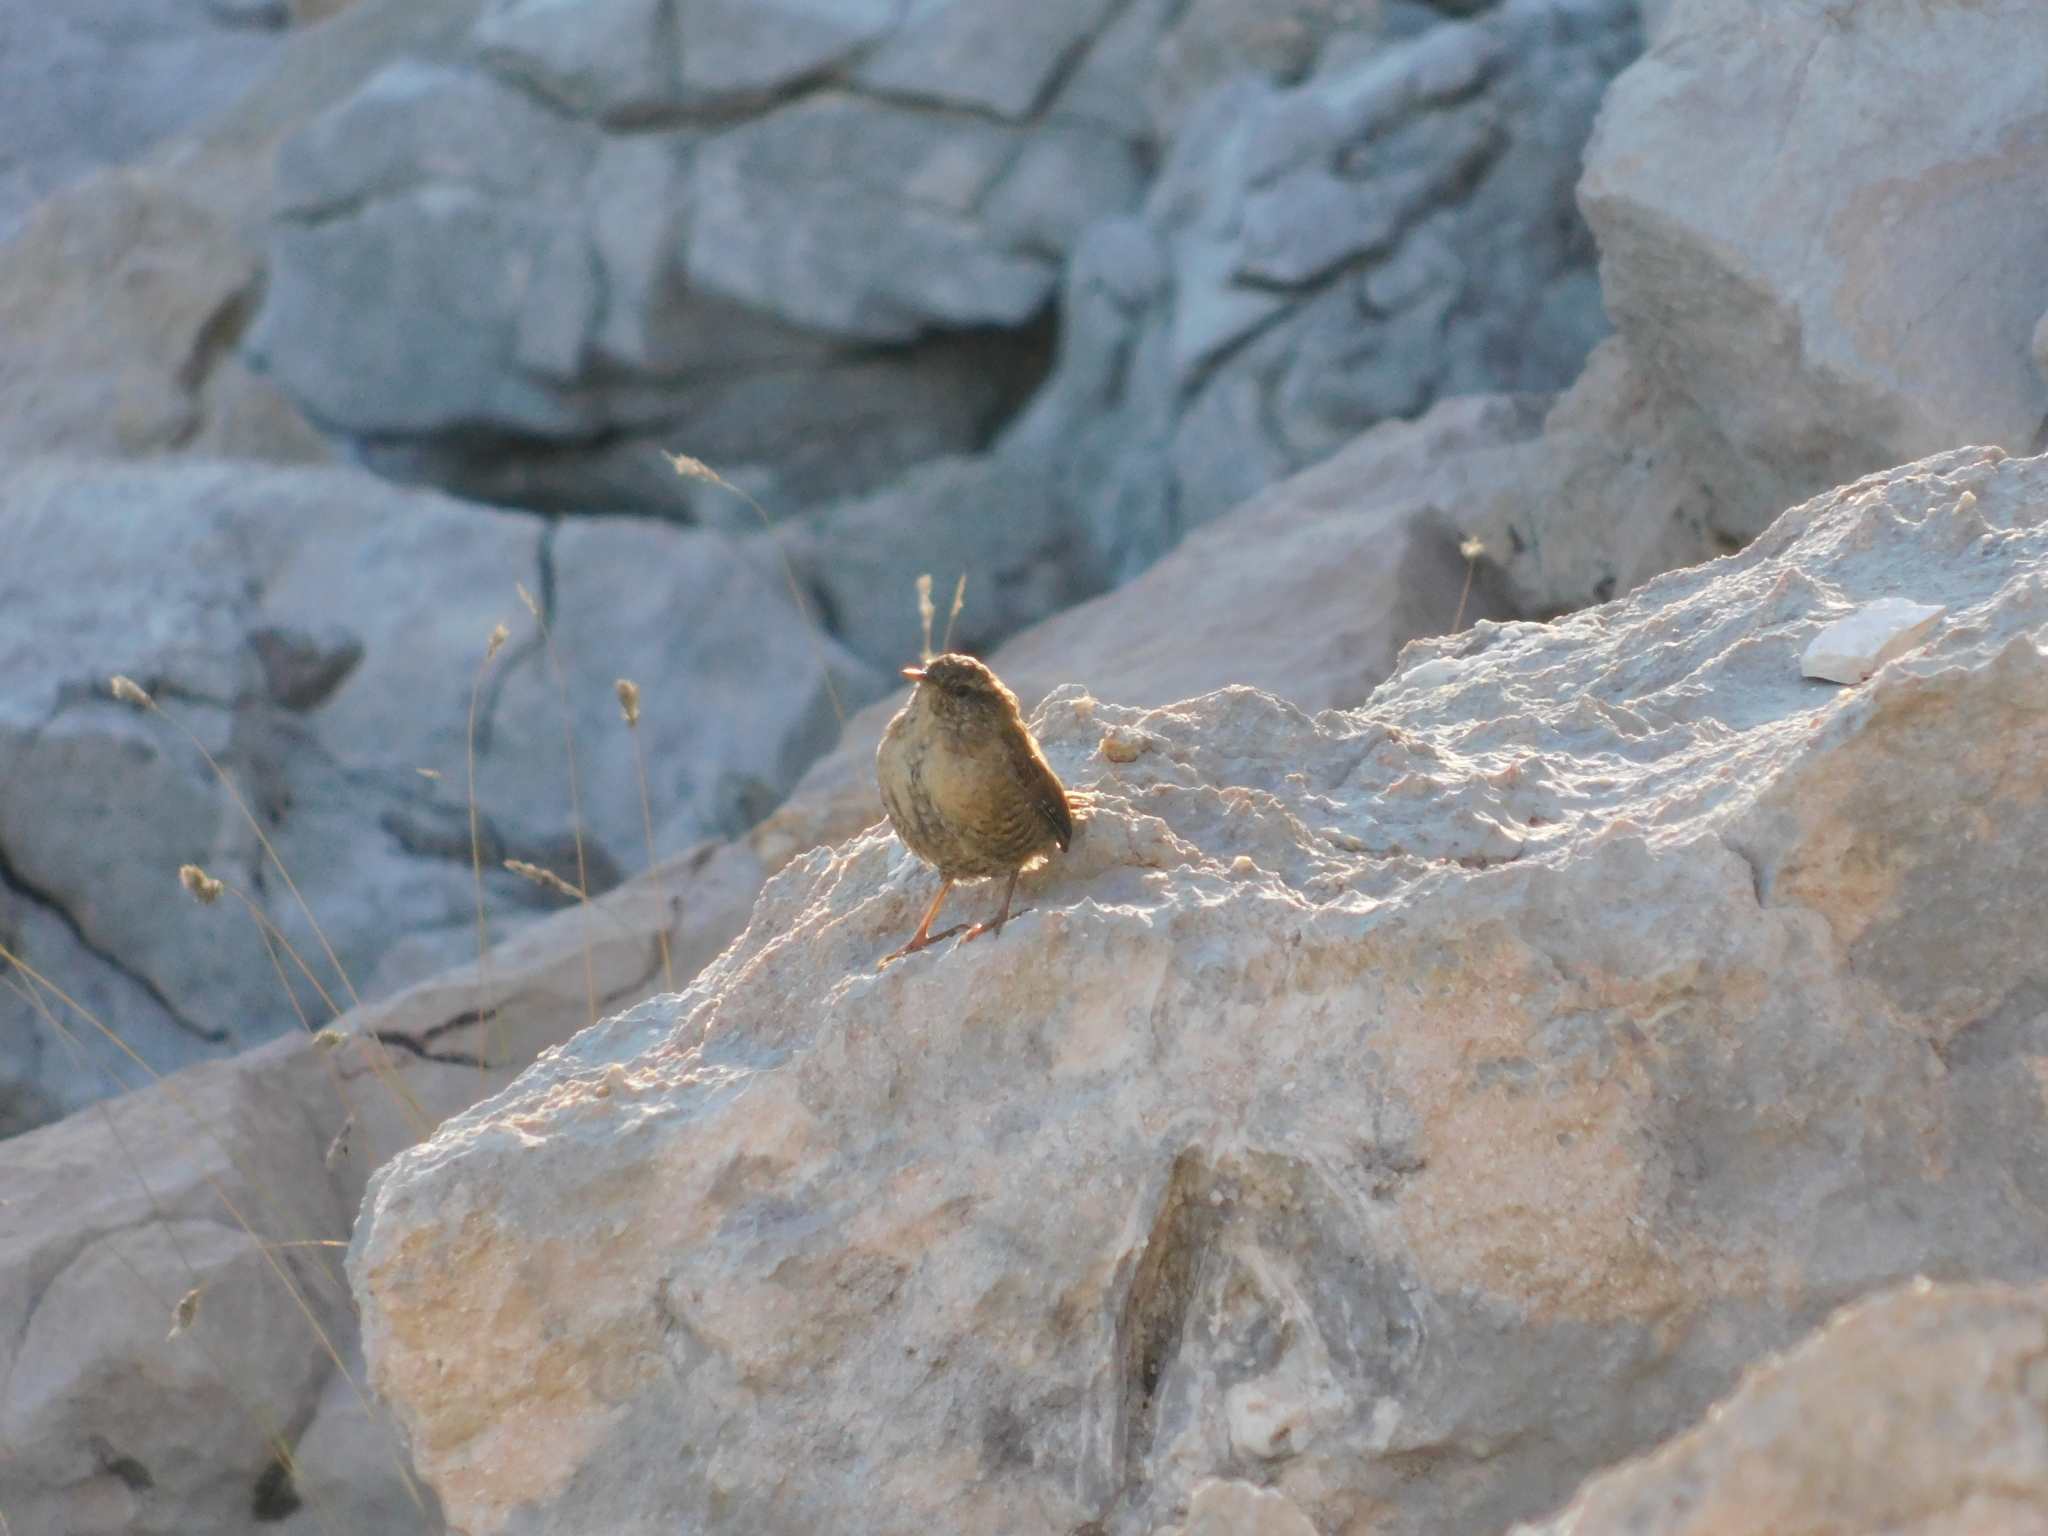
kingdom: Animalia
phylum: Chordata
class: Aves
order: Passeriformes
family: Troglodytidae
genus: Troglodytes
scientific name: Troglodytes troglodytes
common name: Eurasian wren
